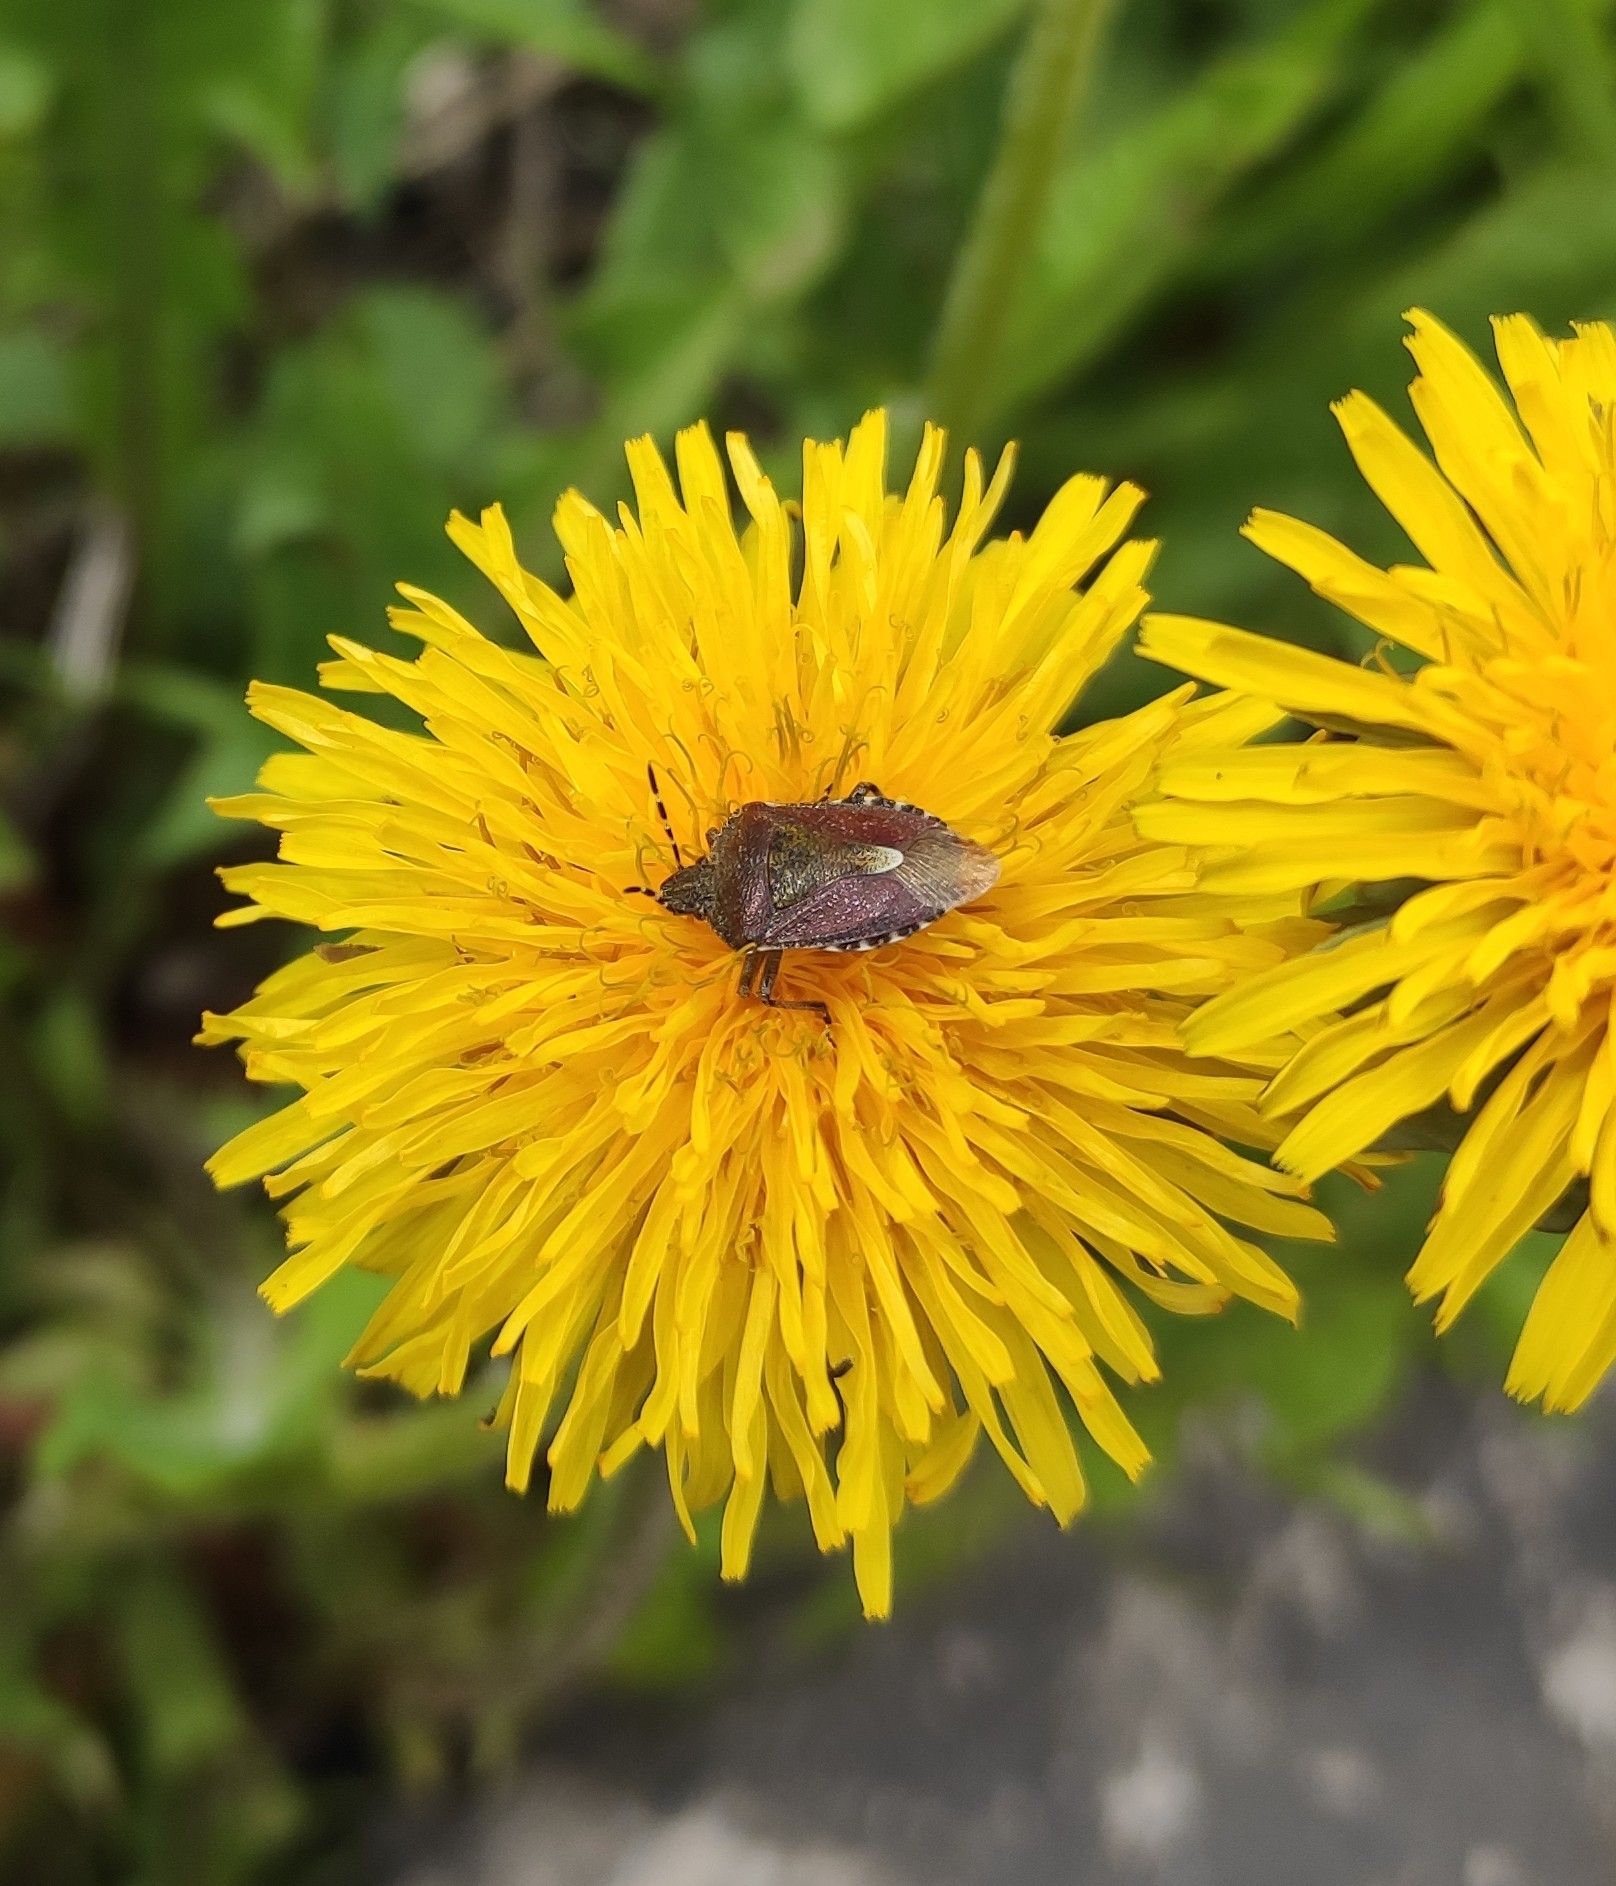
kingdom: Animalia
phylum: Arthropoda
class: Insecta
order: Hemiptera
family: Pentatomidae
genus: Dolycoris
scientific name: Dolycoris baccarum
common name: Sloe bug
